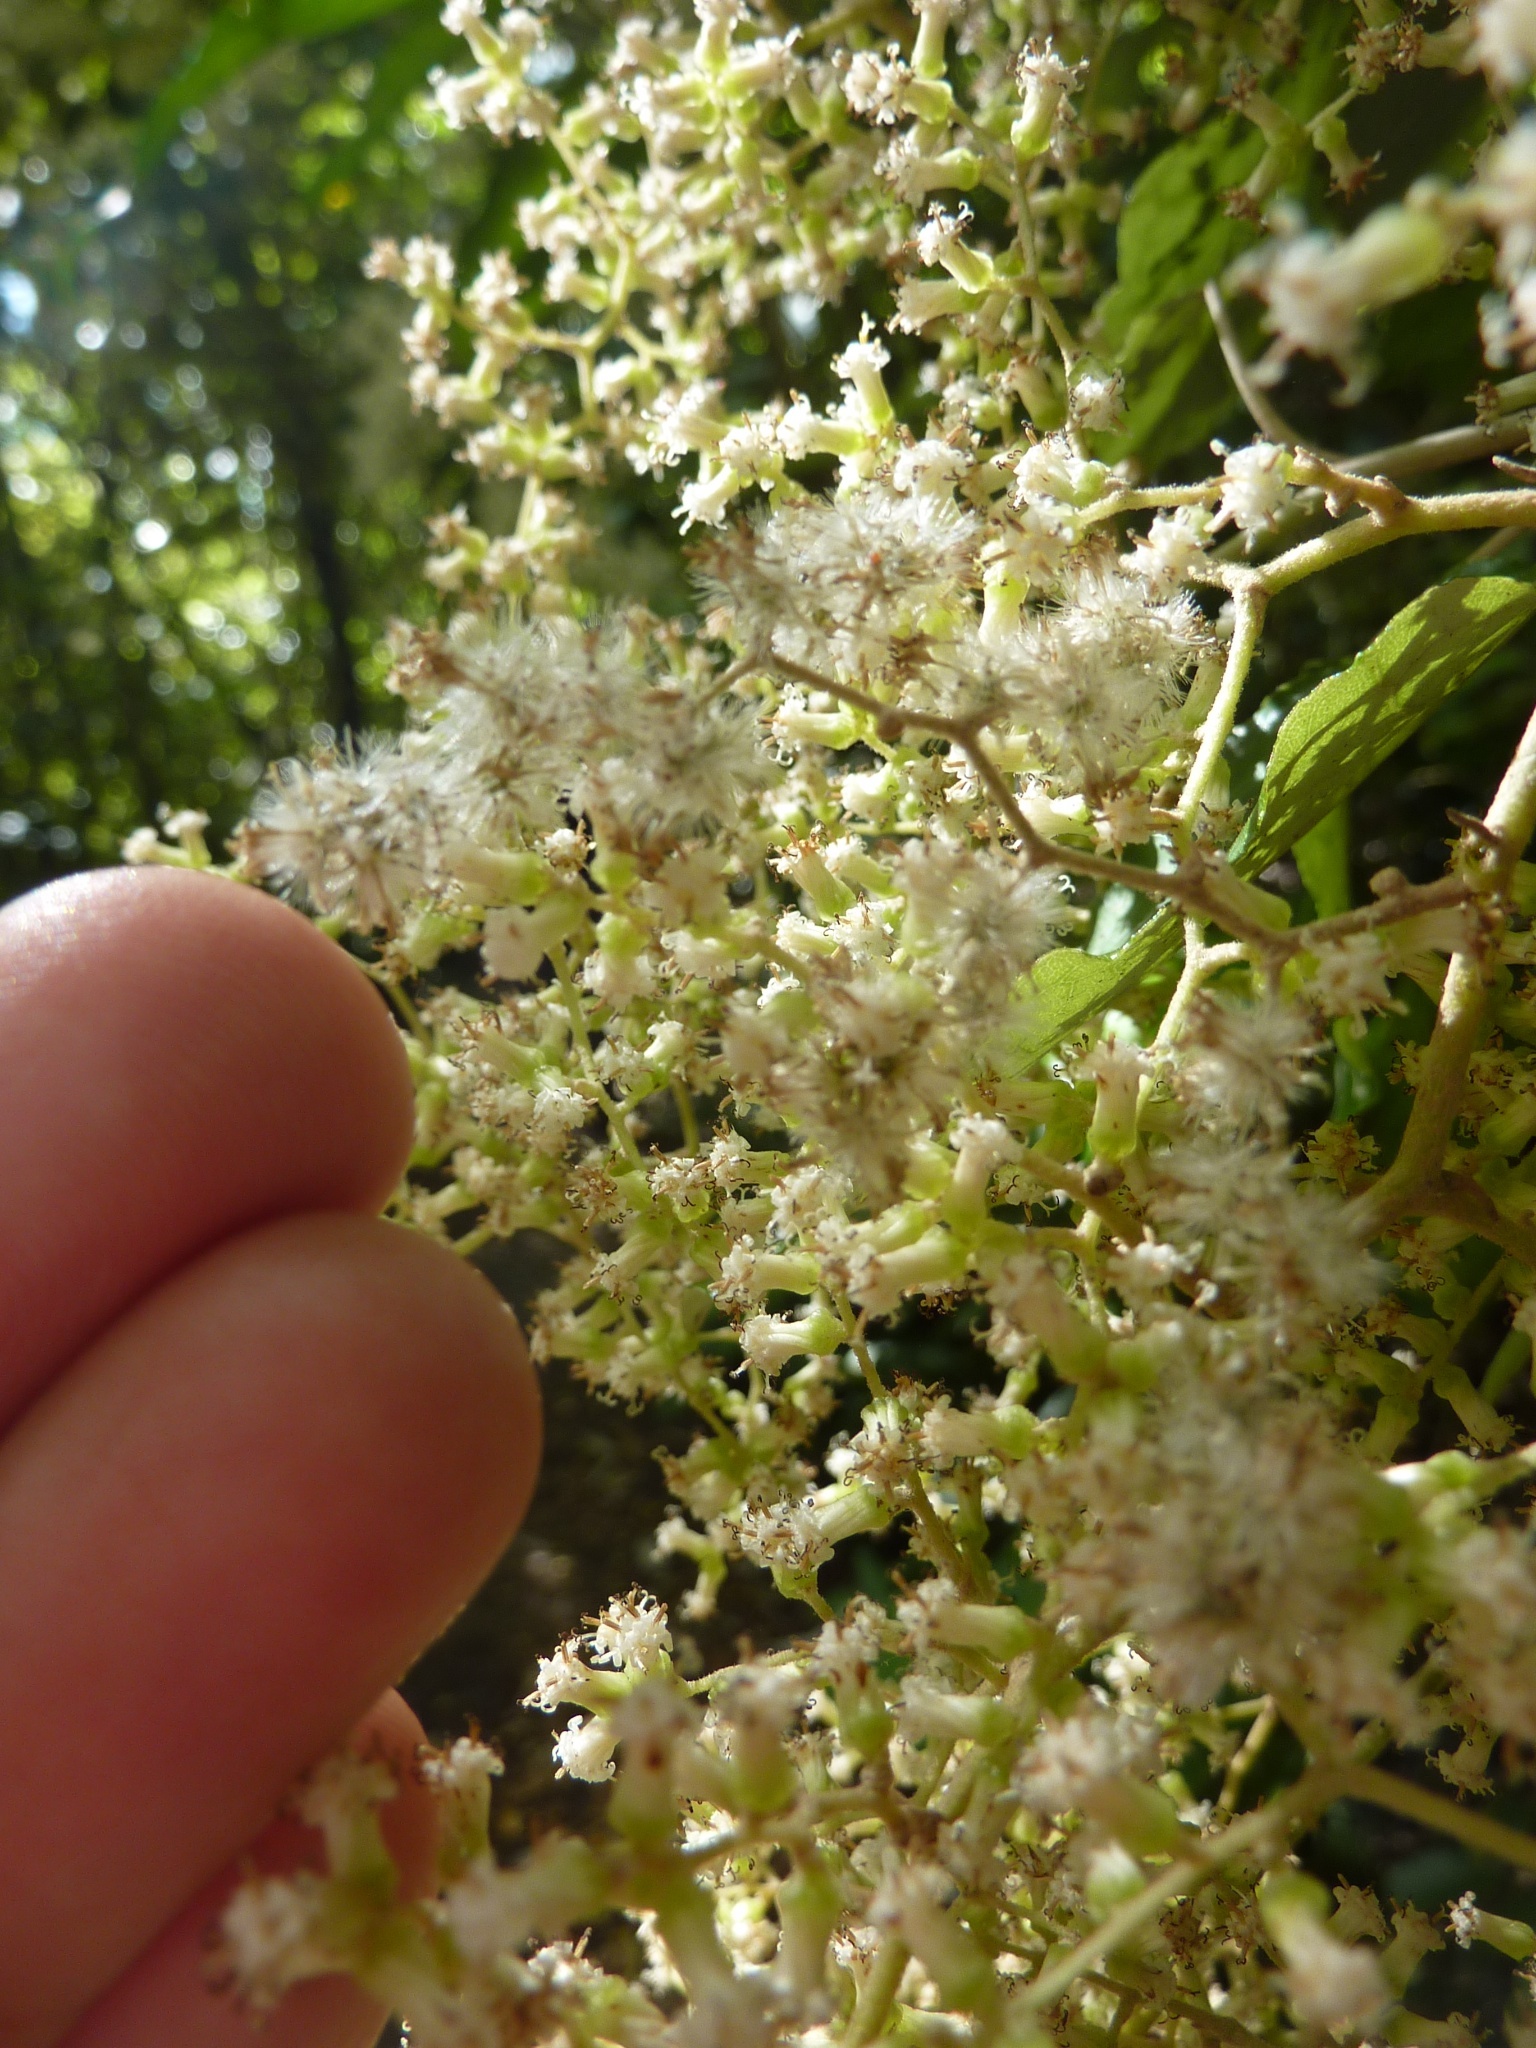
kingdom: Plantae
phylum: Tracheophyta
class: Magnoliopsida
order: Asterales
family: Asteraceae
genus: Brachyglottis
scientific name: Brachyglottis repanda
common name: Hedge ragwort
